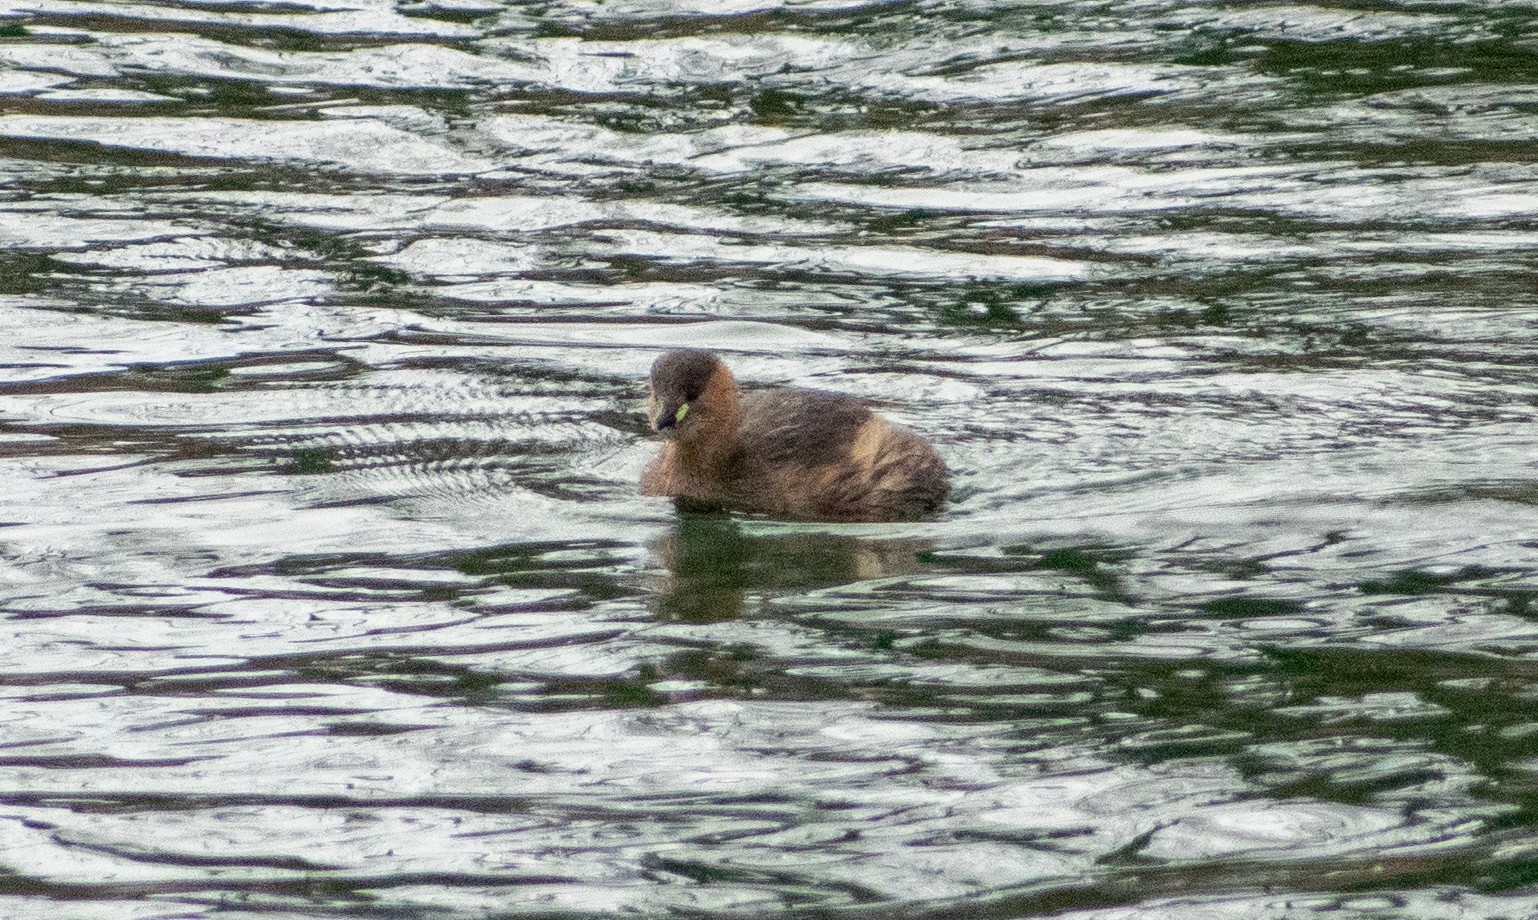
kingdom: Animalia
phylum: Chordata
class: Aves
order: Podicipediformes
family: Podicipedidae
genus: Tachybaptus
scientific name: Tachybaptus ruficollis
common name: Little grebe
